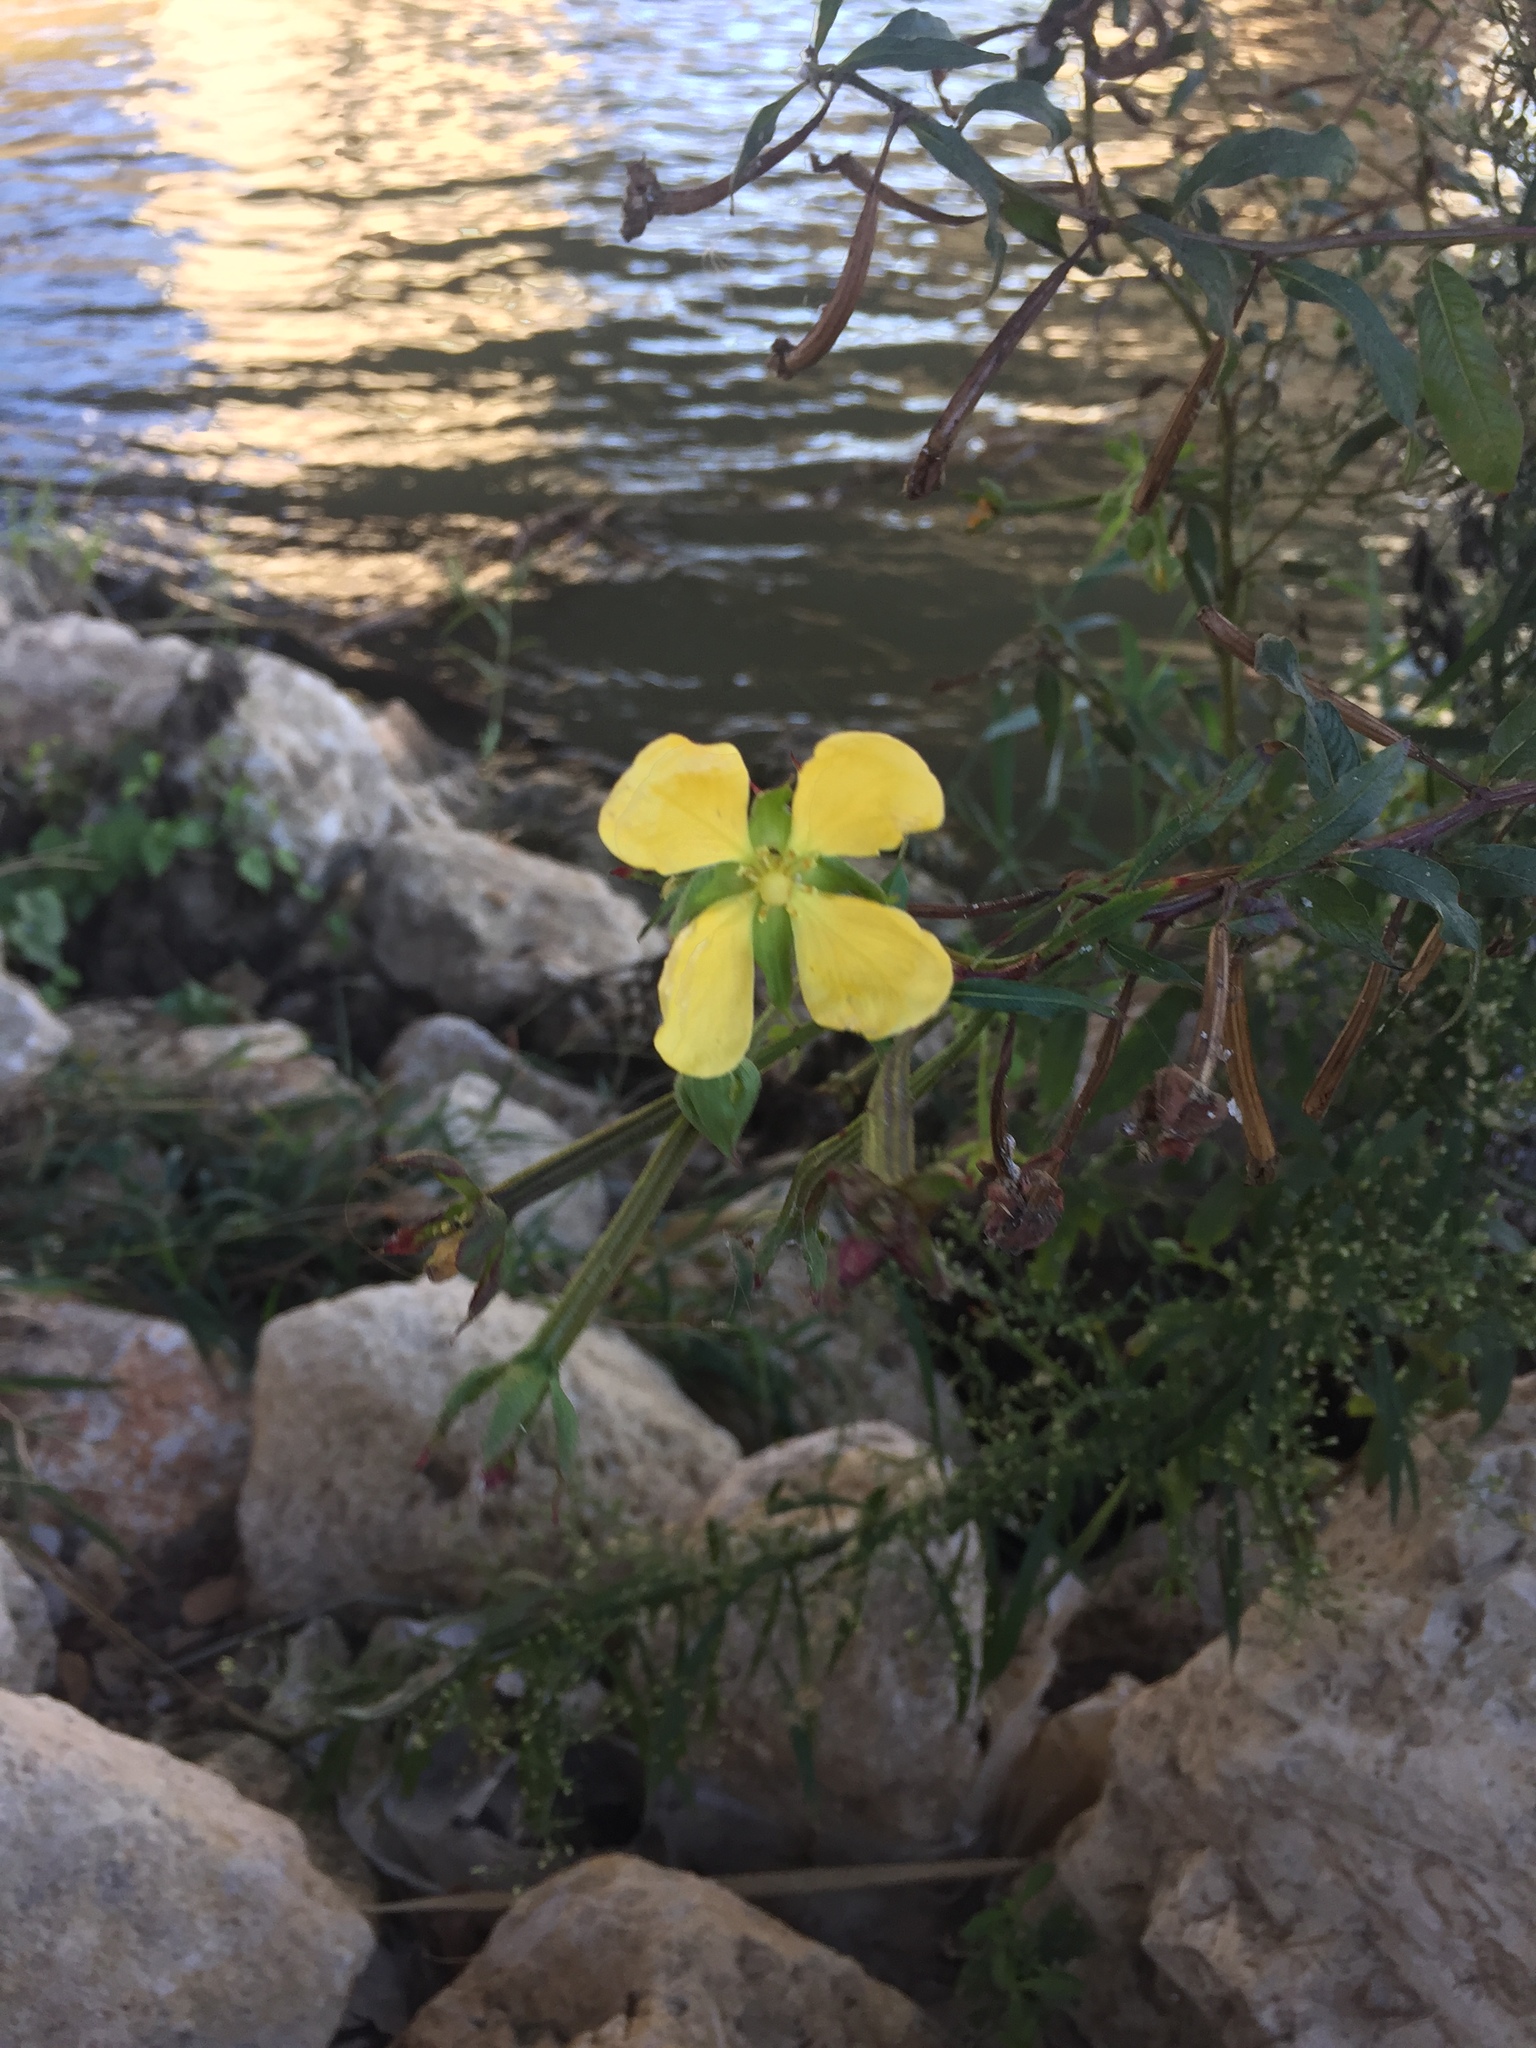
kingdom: Plantae
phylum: Tracheophyta
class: Magnoliopsida
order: Myrtales
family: Onagraceae
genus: Ludwigia
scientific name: Ludwigia octovalvis
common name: Water-primrose
